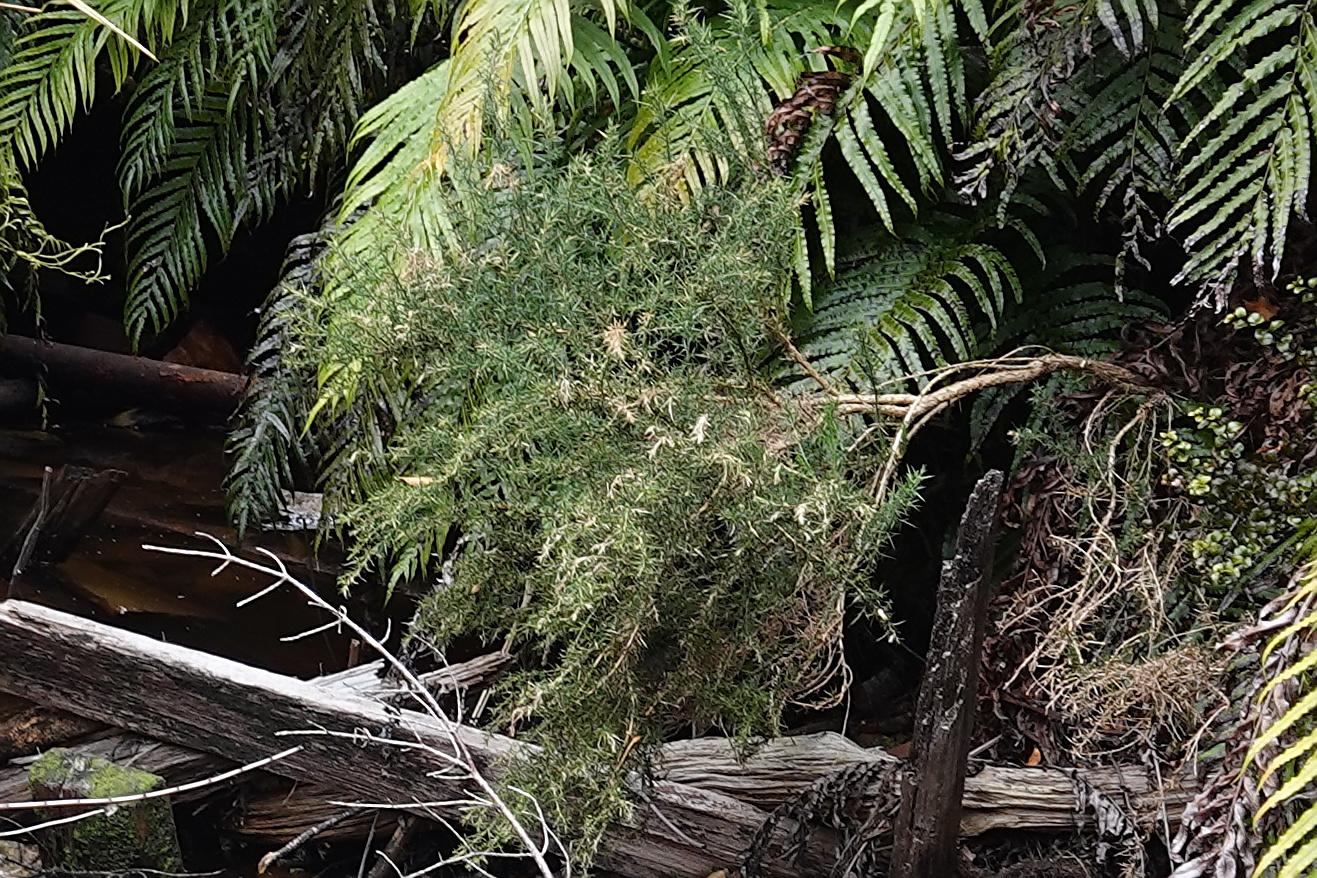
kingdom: Plantae
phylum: Tracheophyta
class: Magnoliopsida
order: Fabales
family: Fabaceae
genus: Ulex
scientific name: Ulex europaeus
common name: Common gorse
